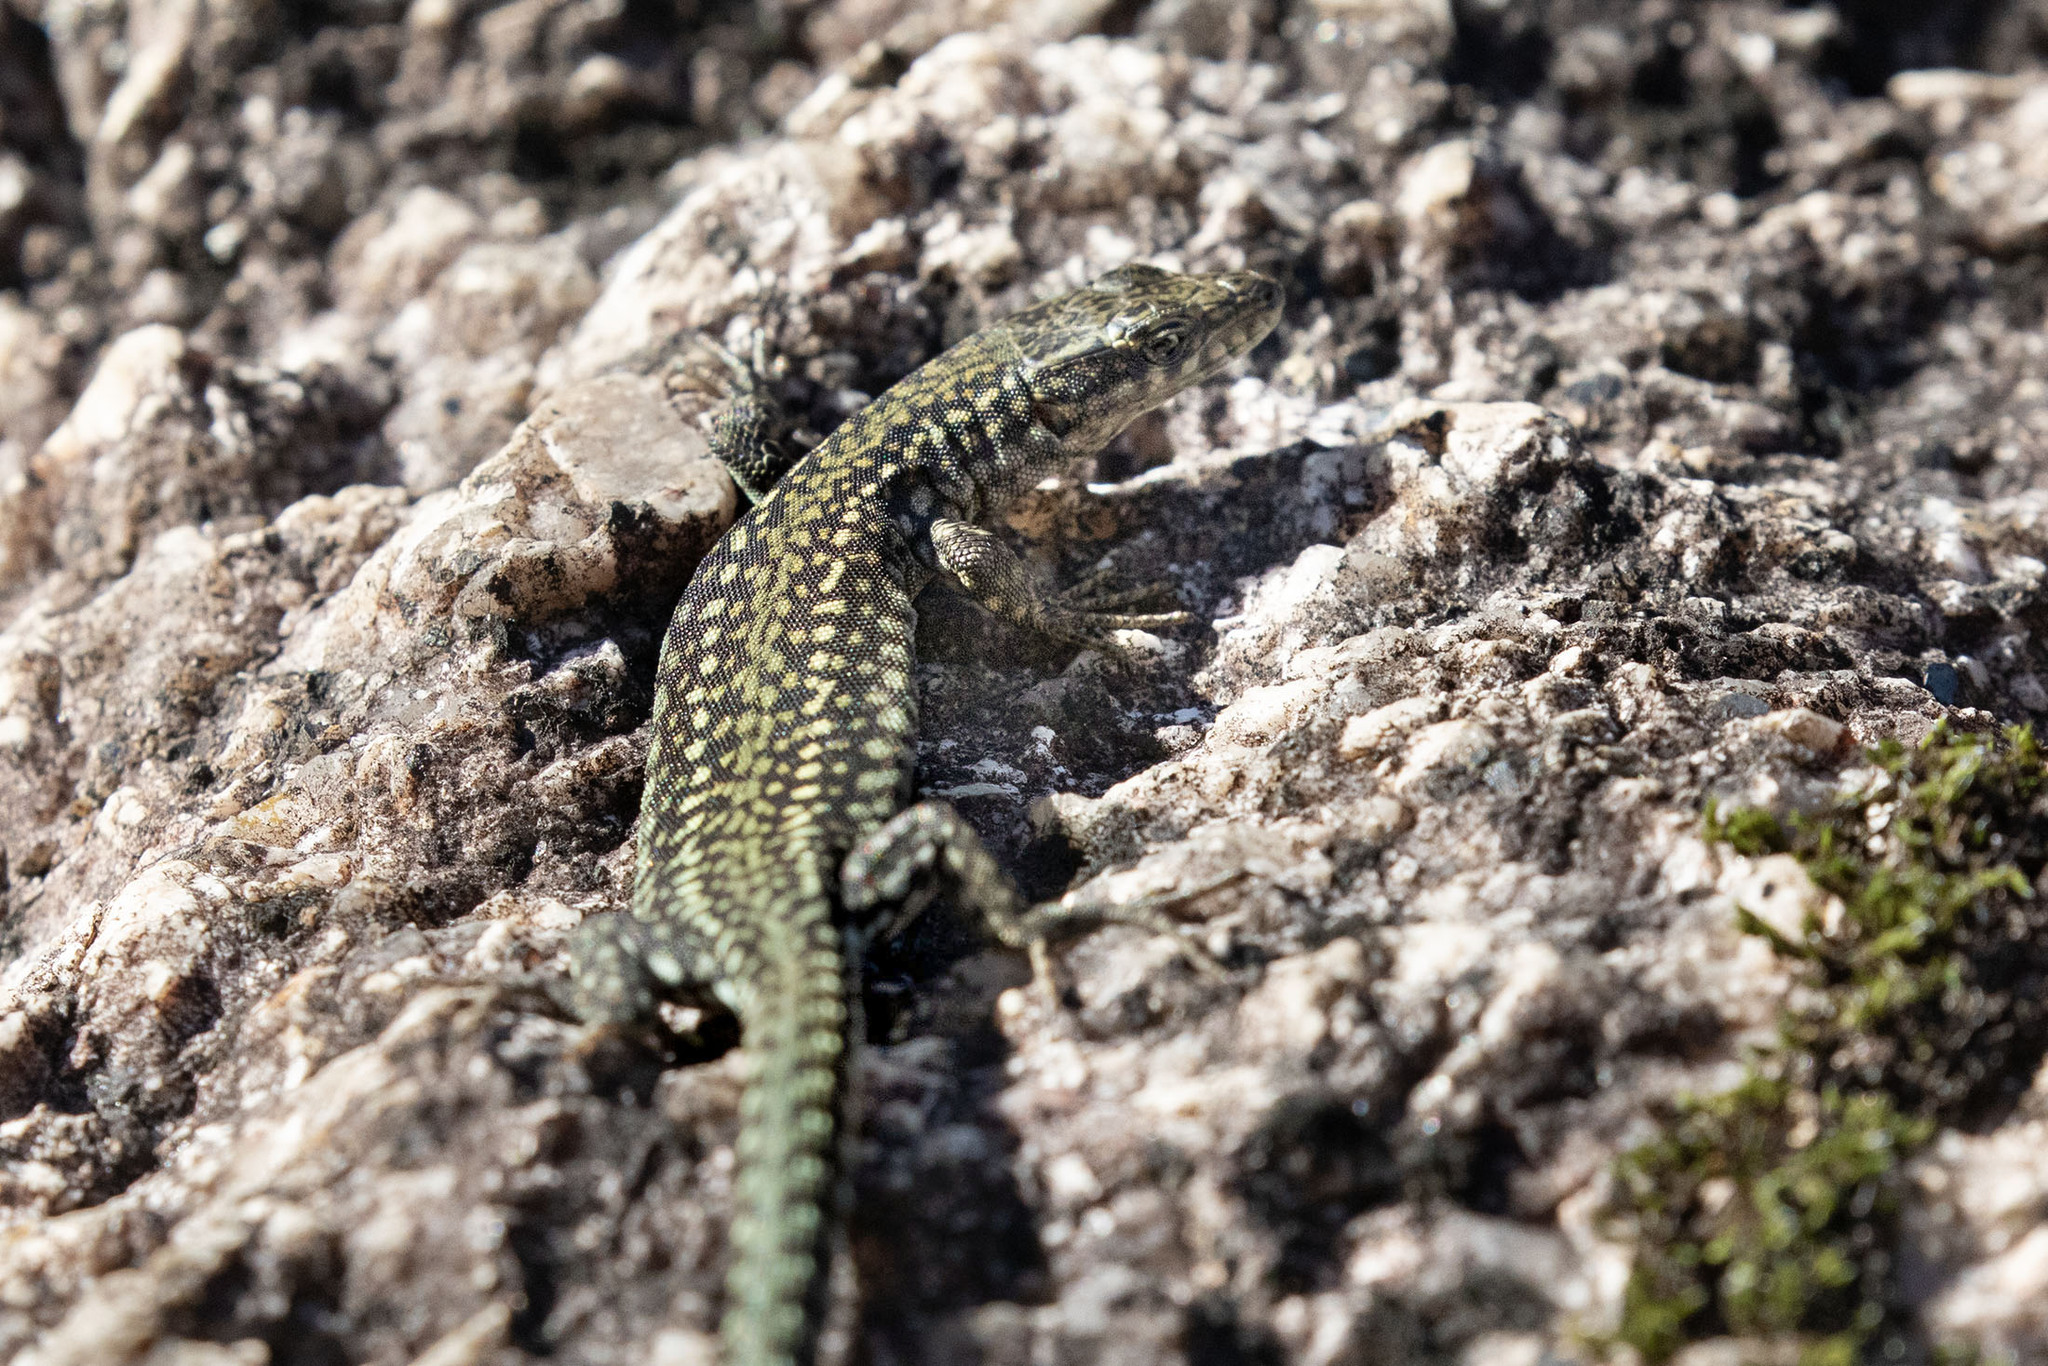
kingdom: Animalia
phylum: Chordata
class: Squamata
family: Lacertidae
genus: Podarcis
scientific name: Podarcis
